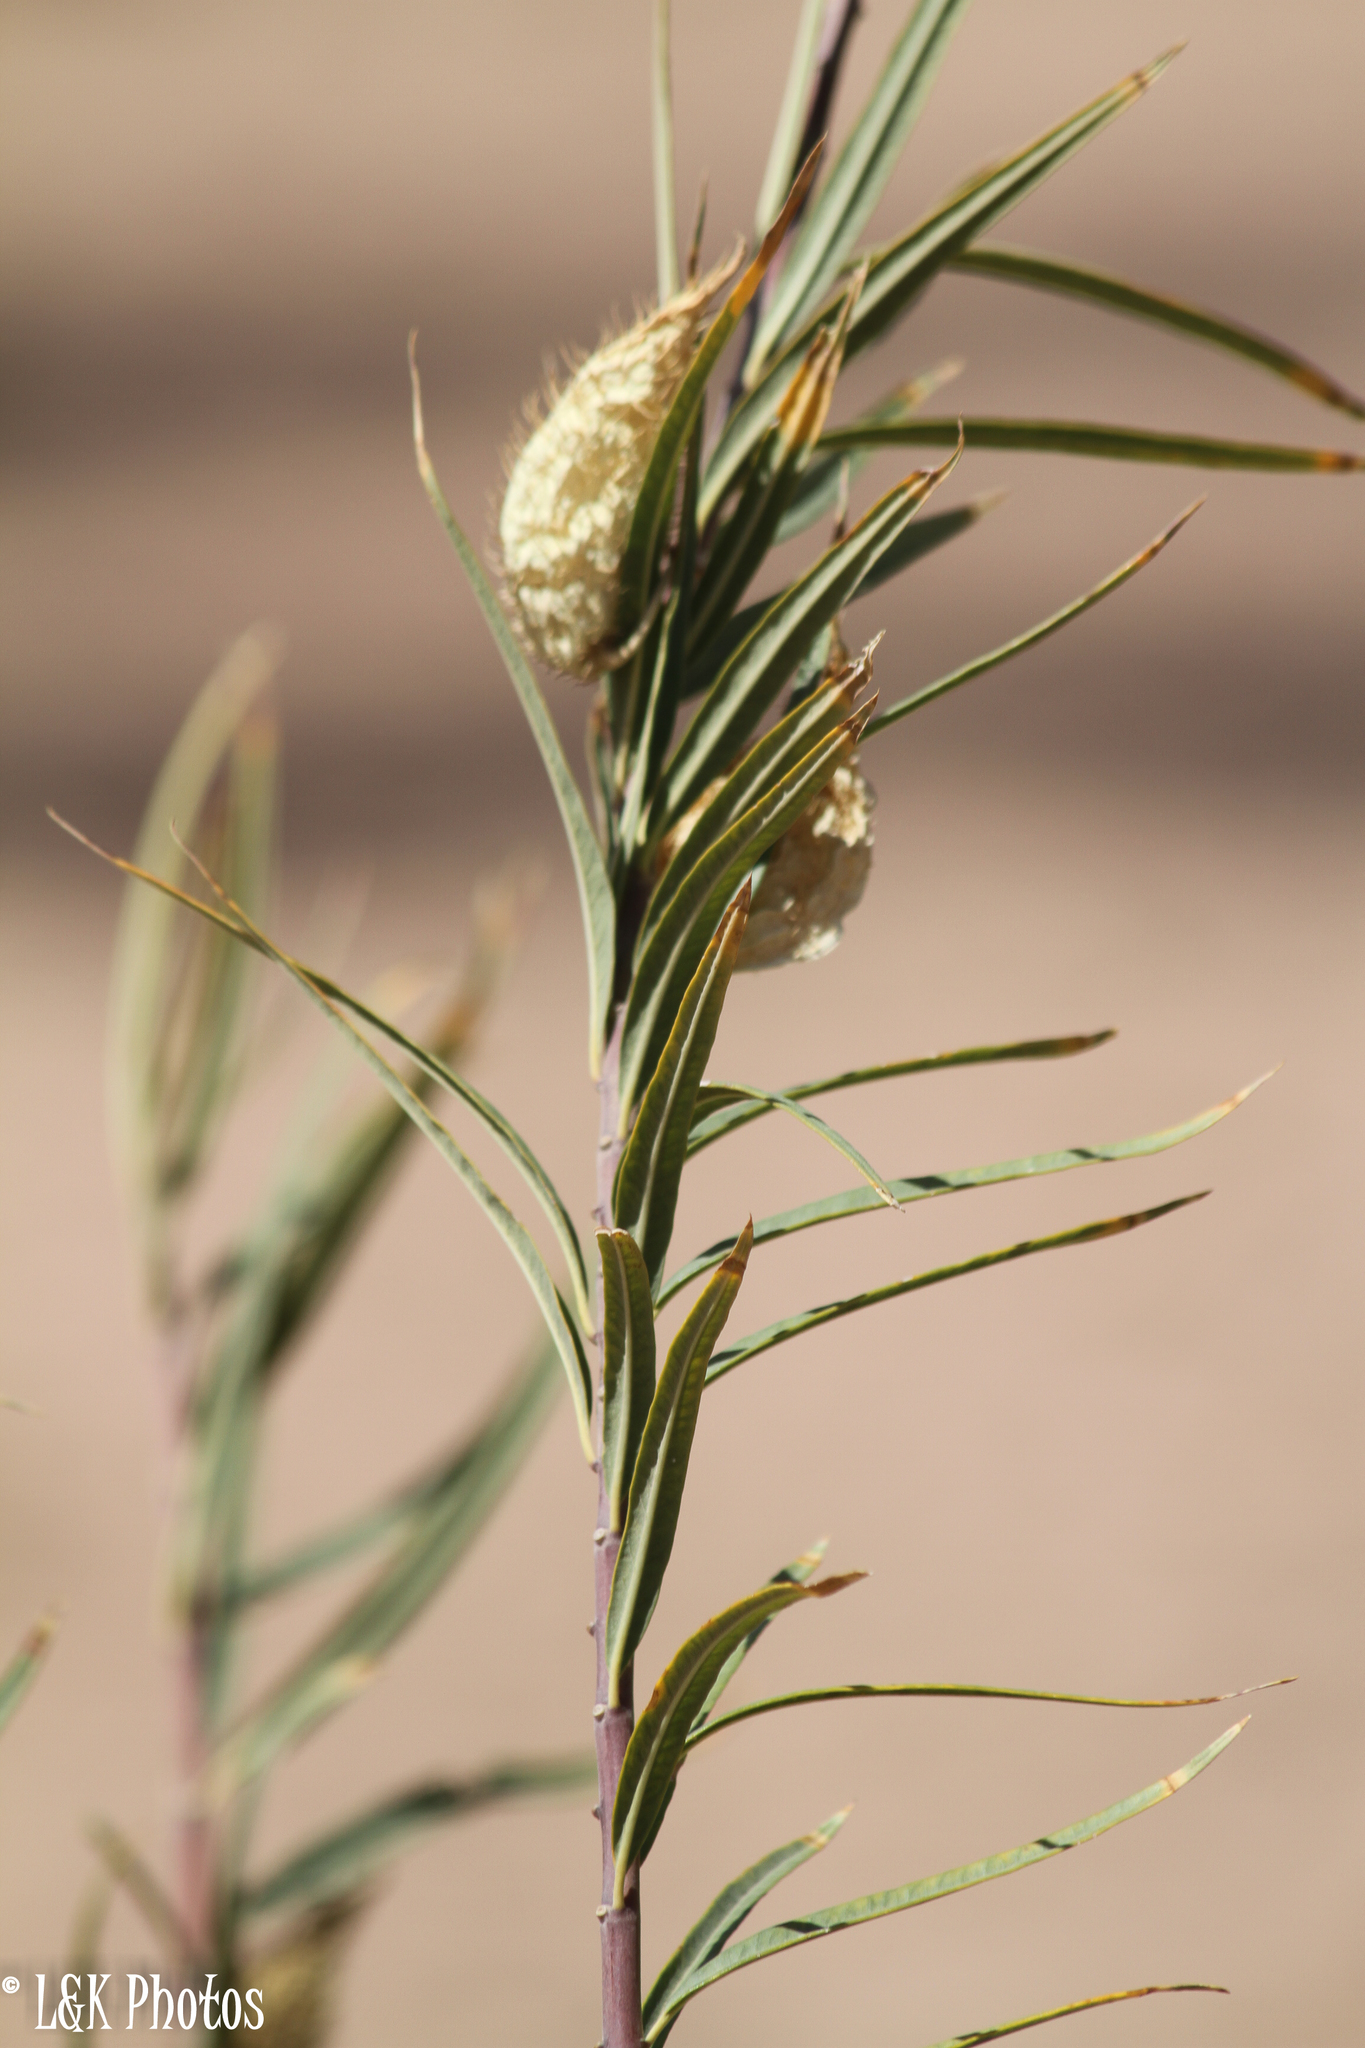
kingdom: Plantae
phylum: Tracheophyta
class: Magnoliopsida
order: Gentianales
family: Apocynaceae
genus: Gomphocarpus
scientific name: Gomphocarpus fruticosus
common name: Milkweed
